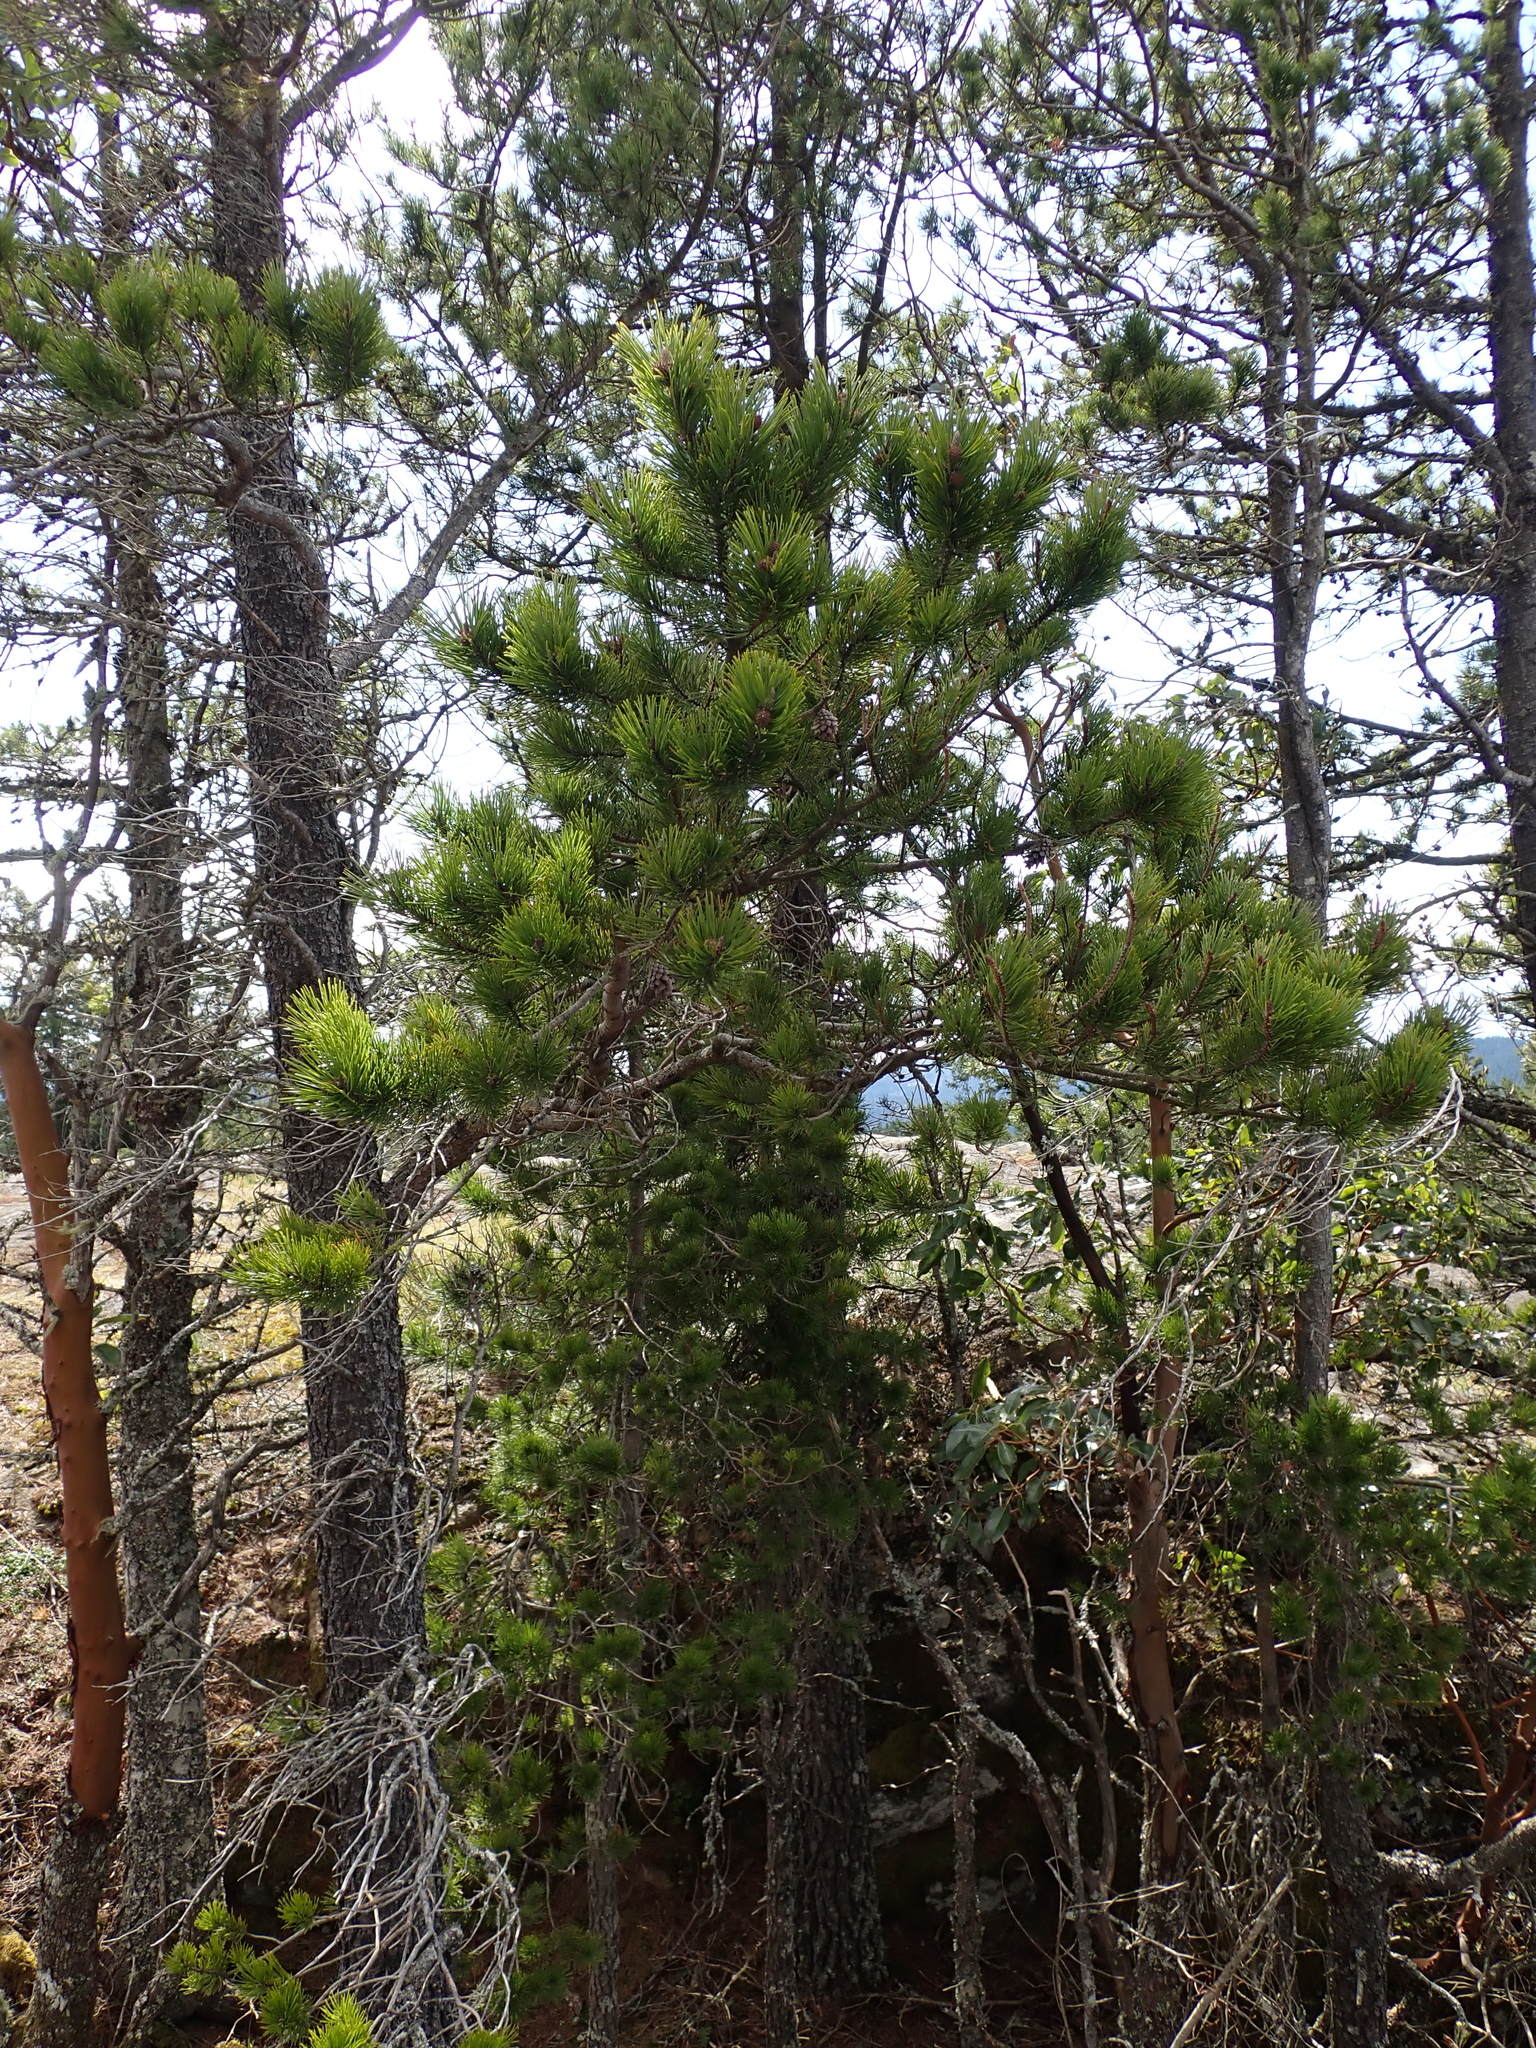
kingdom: Plantae
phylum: Tracheophyta
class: Pinopsida
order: Pinales
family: Pinaceae
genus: Pinus
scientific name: Pinus contorta
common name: Lodgepole pine
